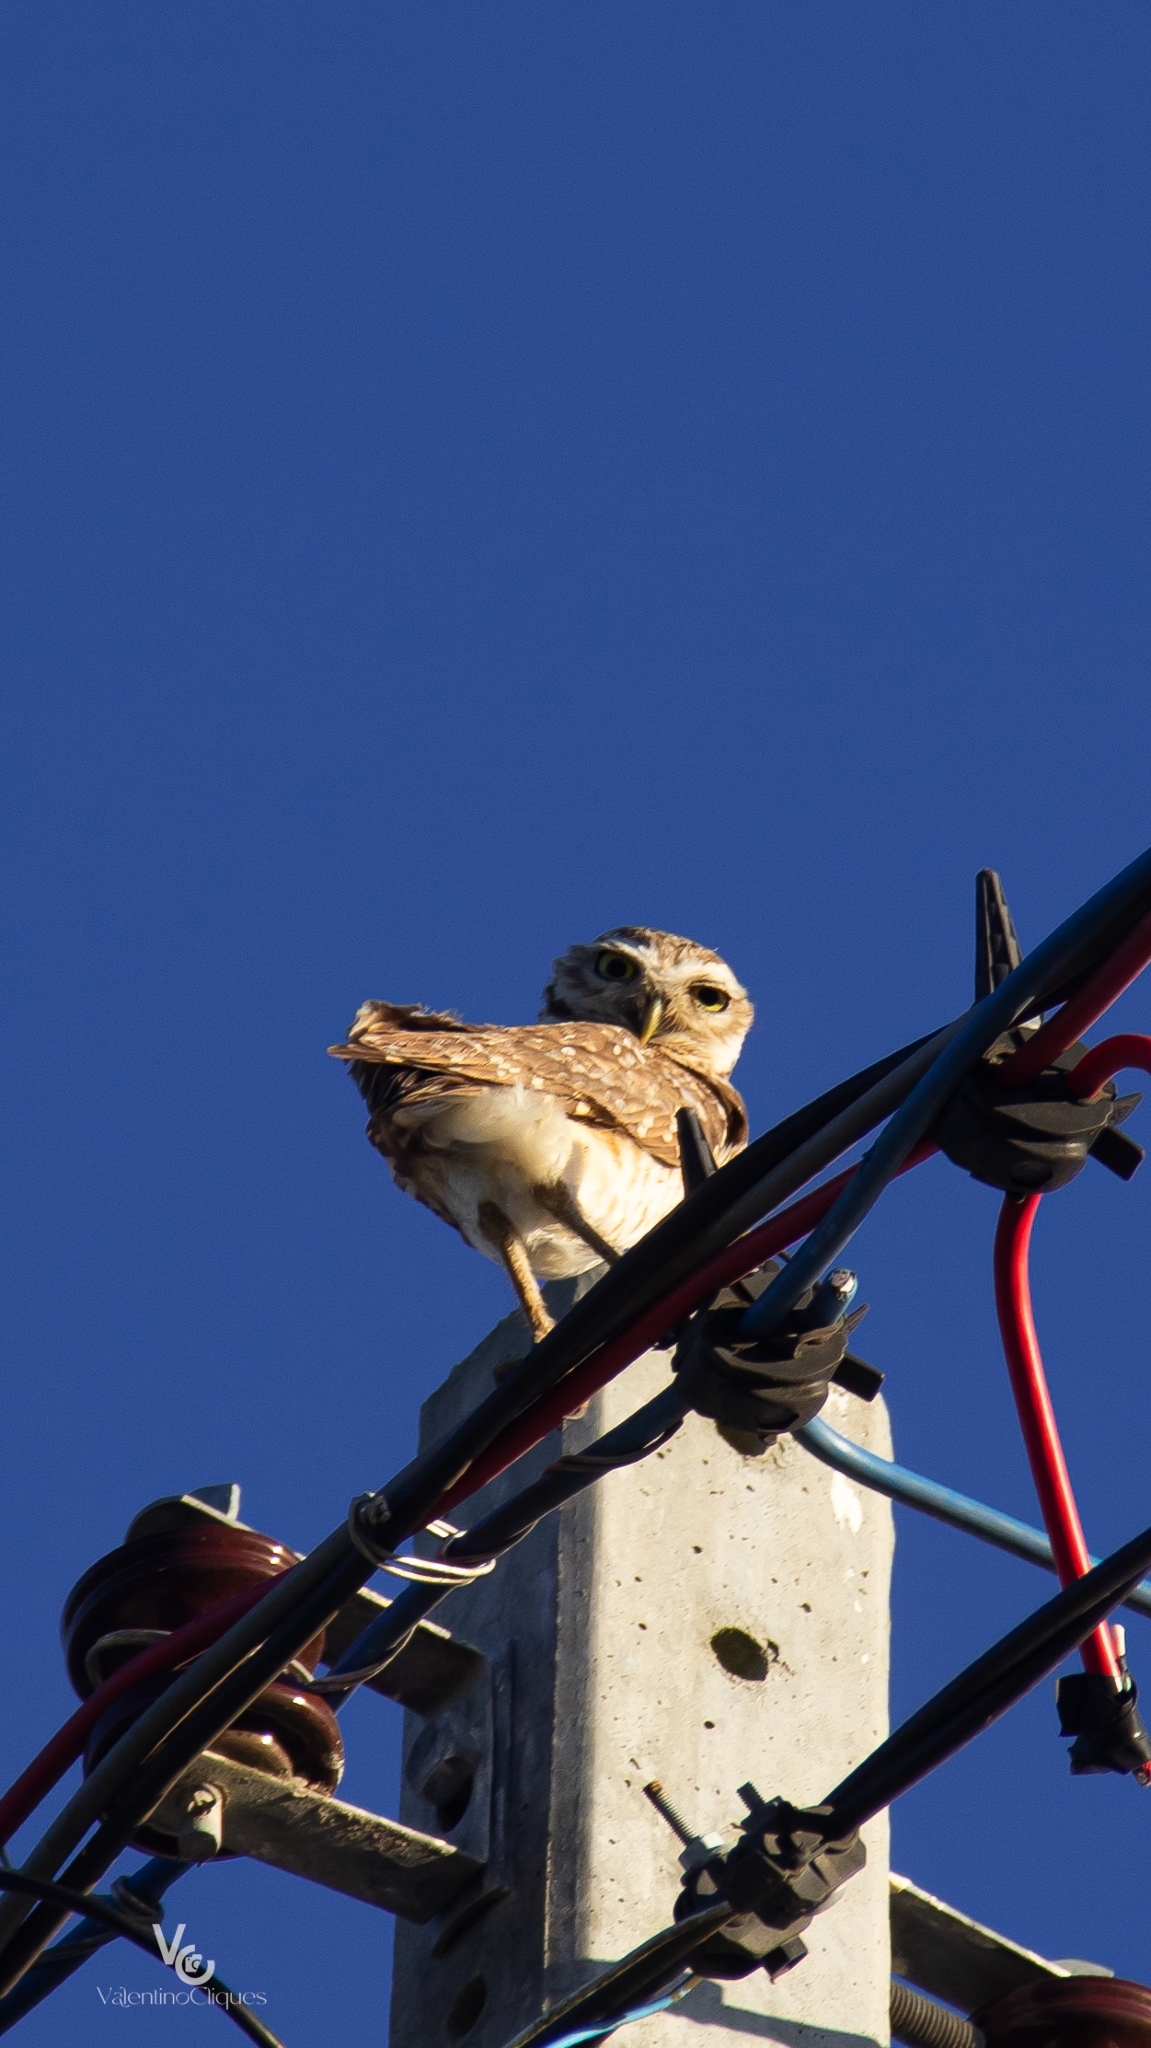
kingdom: Animalia
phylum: Chordata
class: Aves
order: Strigiformes
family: Strigidae
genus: Athene
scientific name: Athene cunicularia
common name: Burrowing owl
